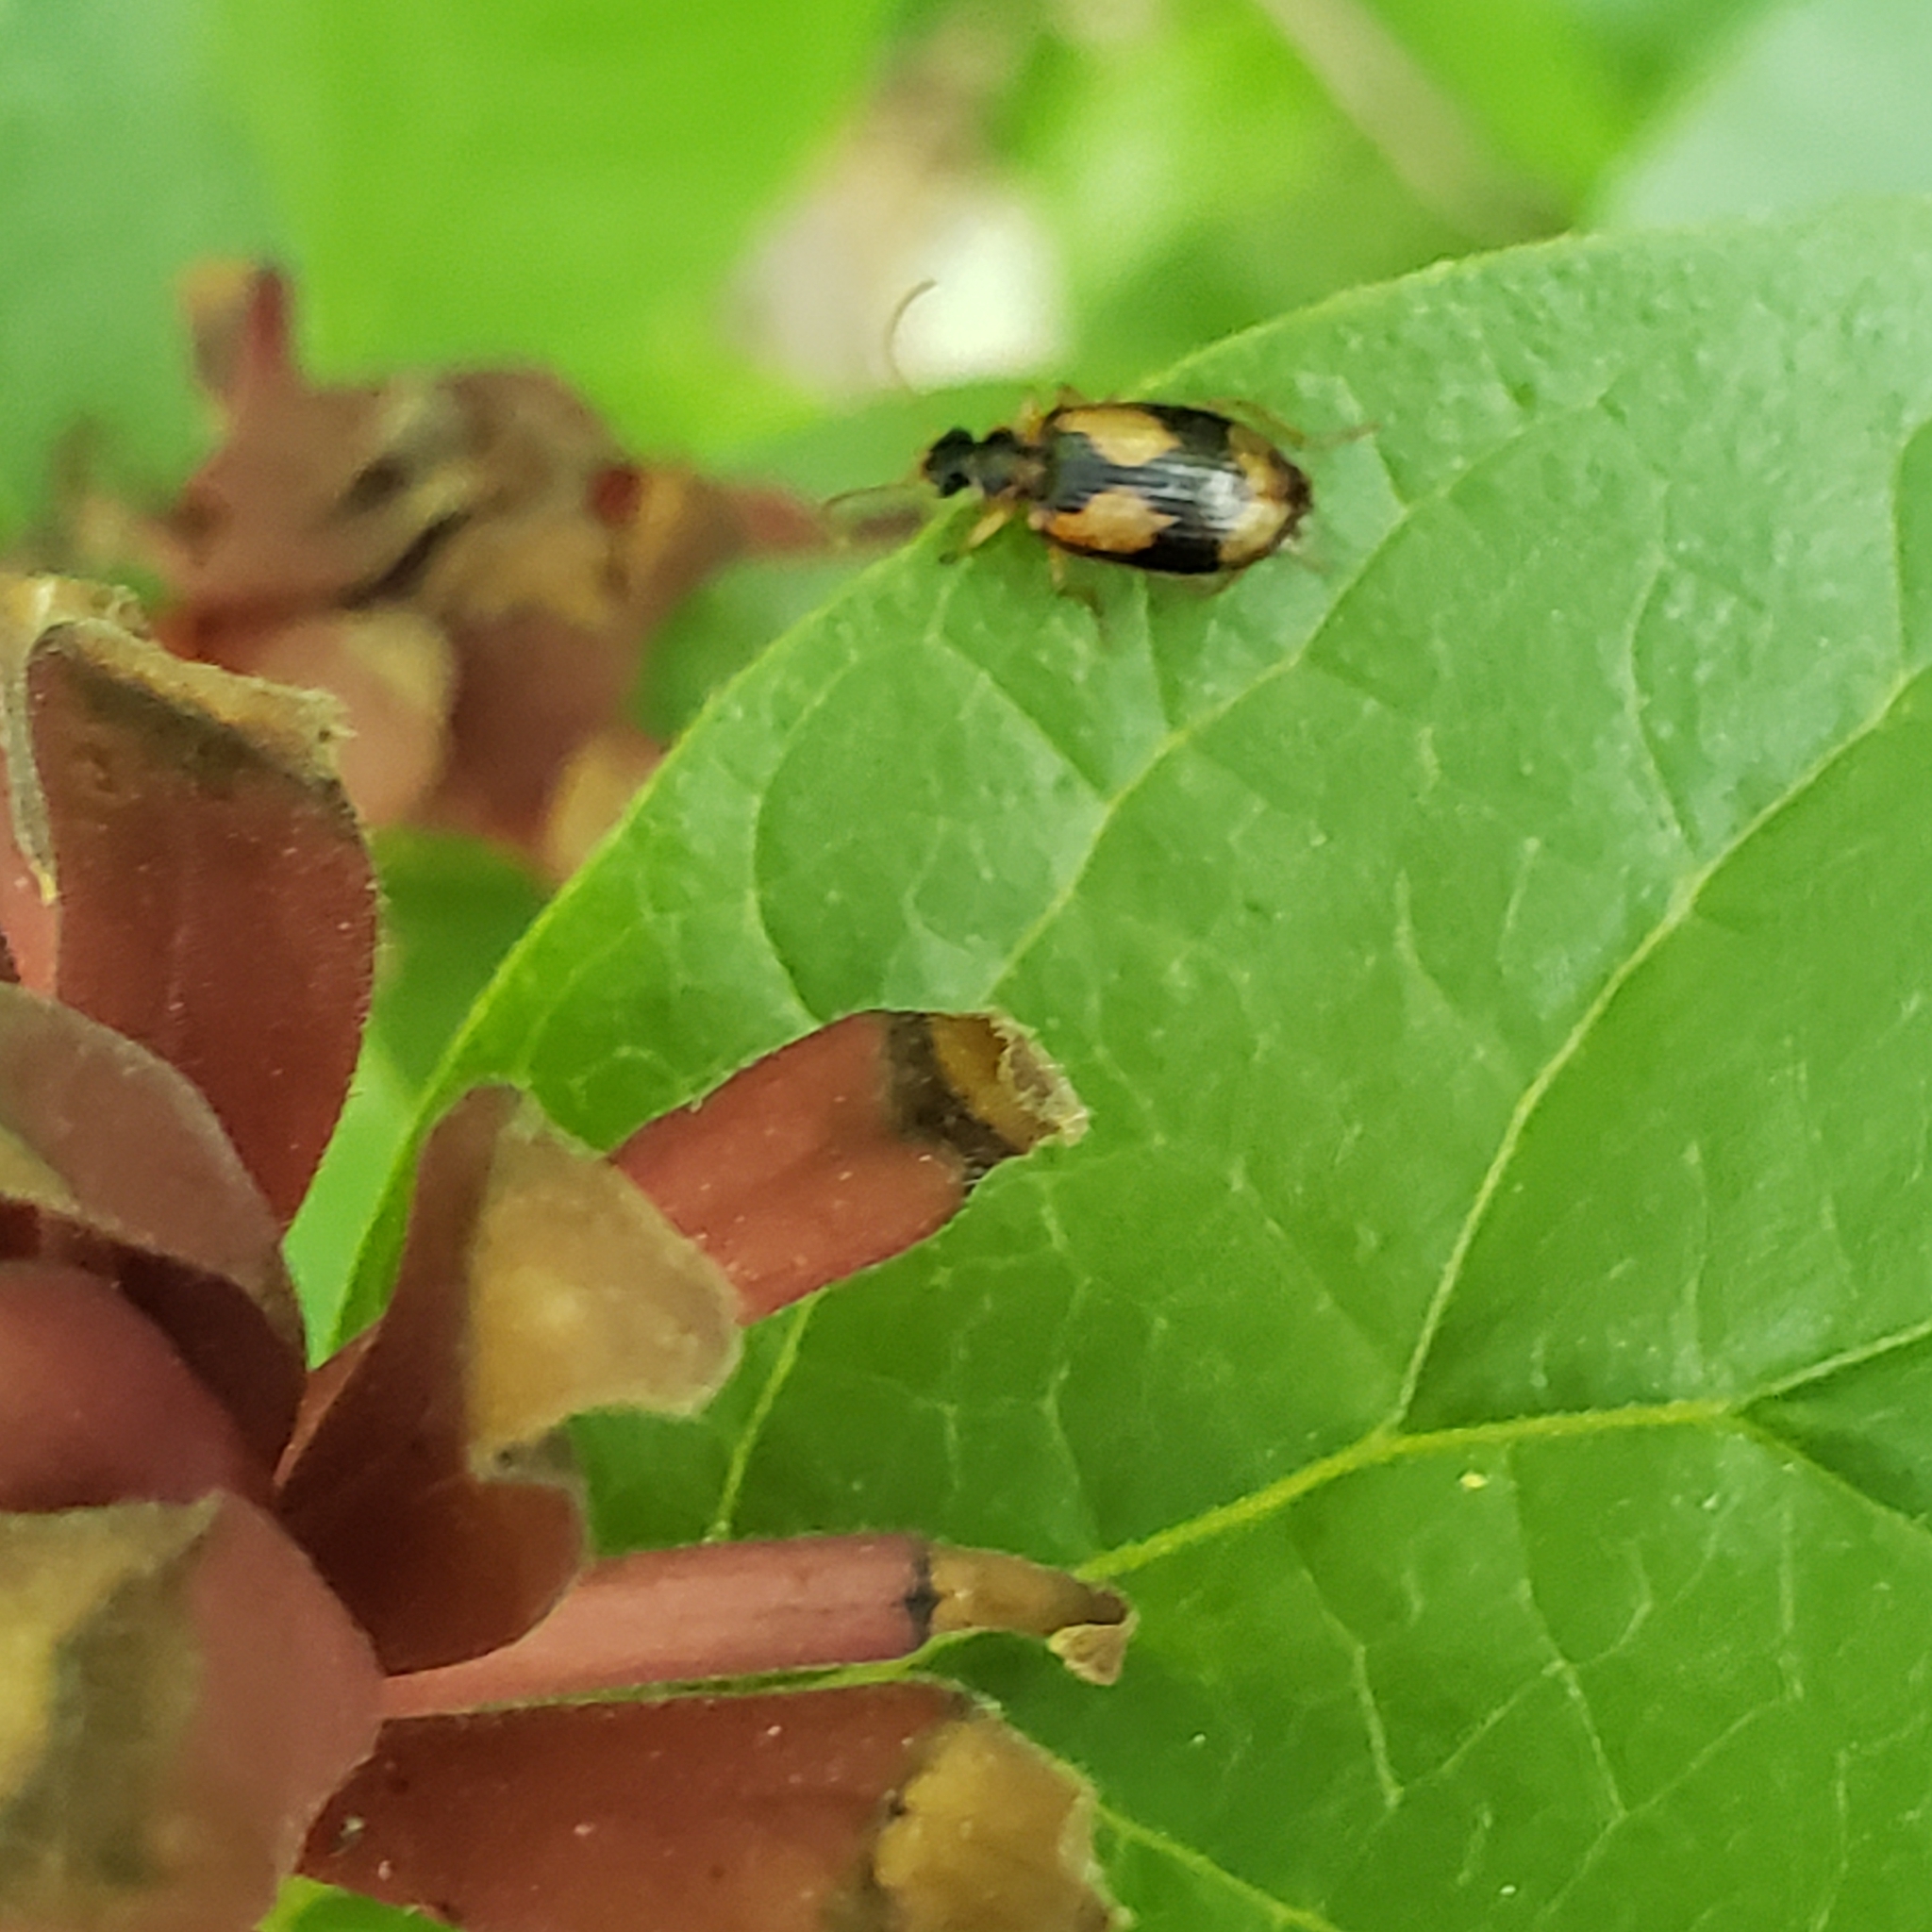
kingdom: Animalia
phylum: Arthropoda
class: Insecta
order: Coleoptera
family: Carabidae
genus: Lebia
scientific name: Lebia fuscata
